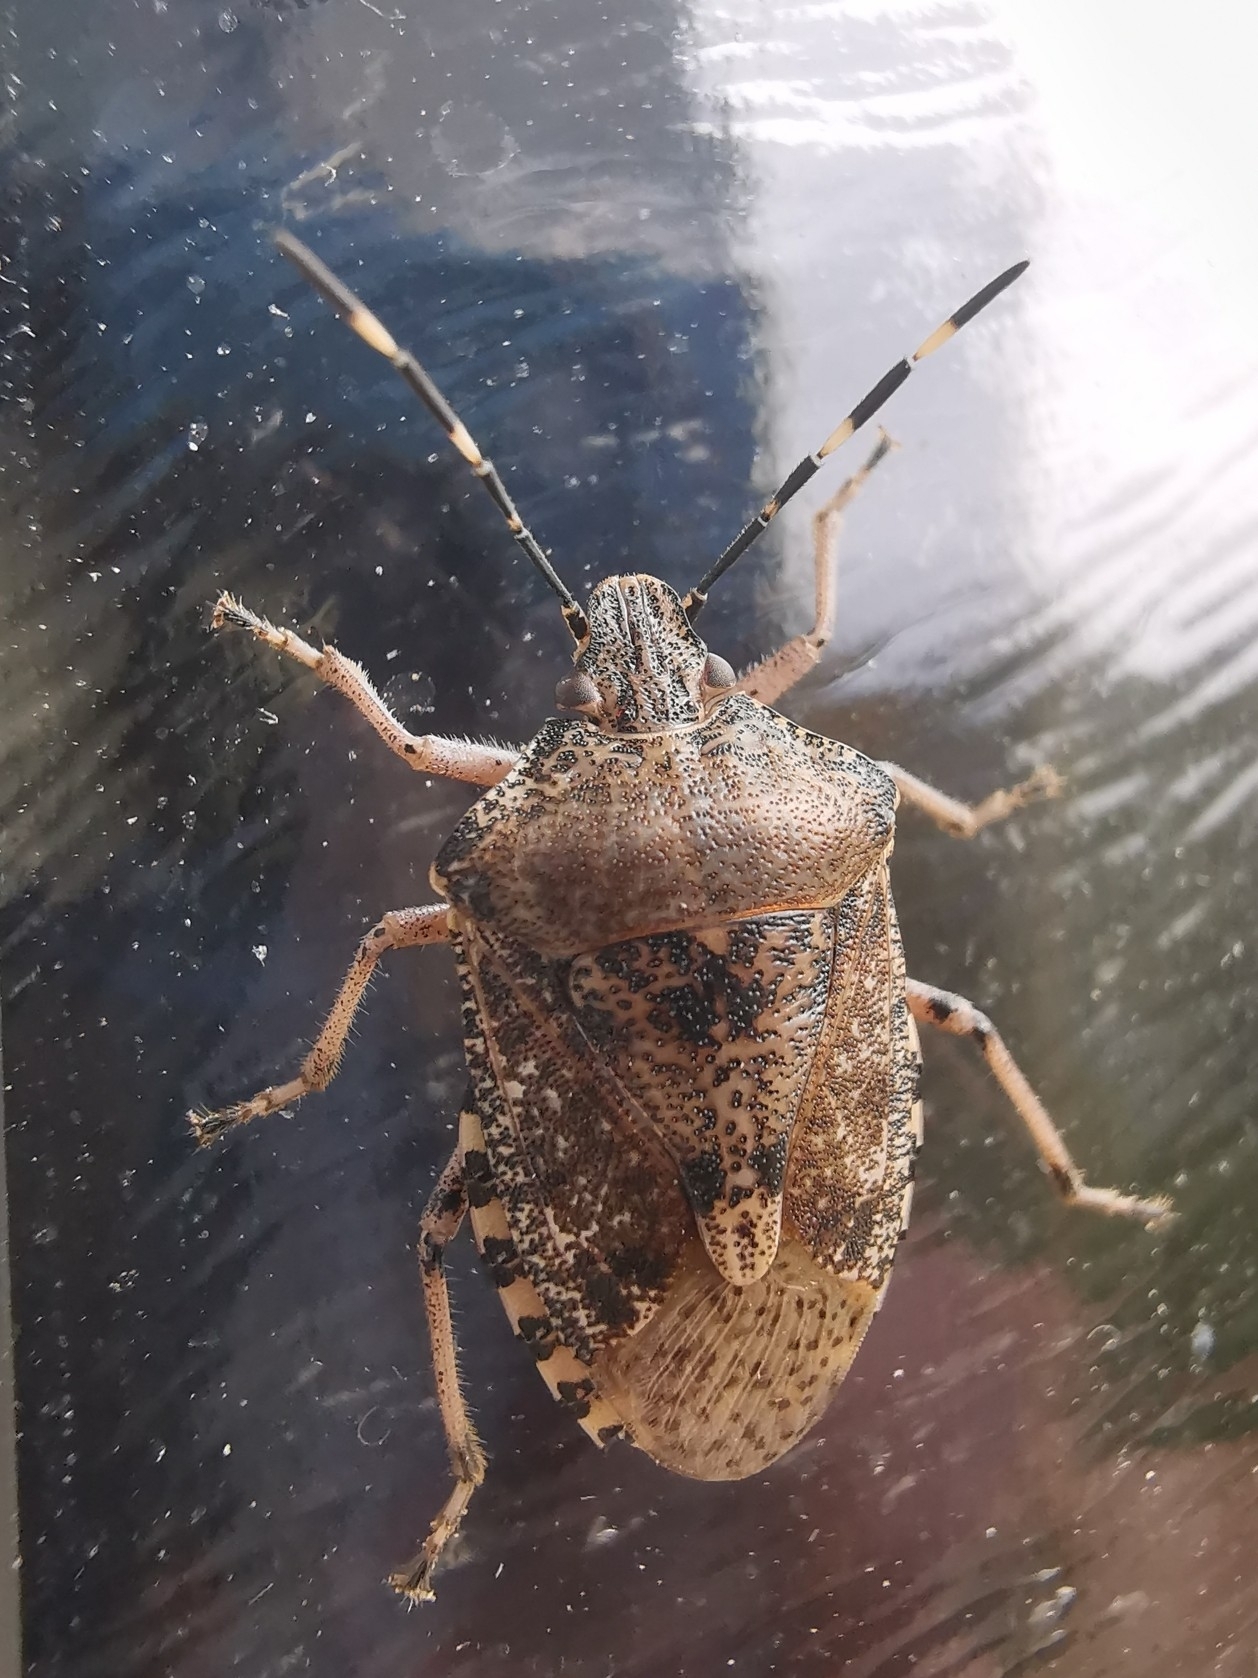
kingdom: Animalia
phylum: Arthropoda
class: Insecta
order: Hemiptera
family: Pentatomidae
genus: Rhaphigaster
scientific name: Rhaphigaster nebulosa
